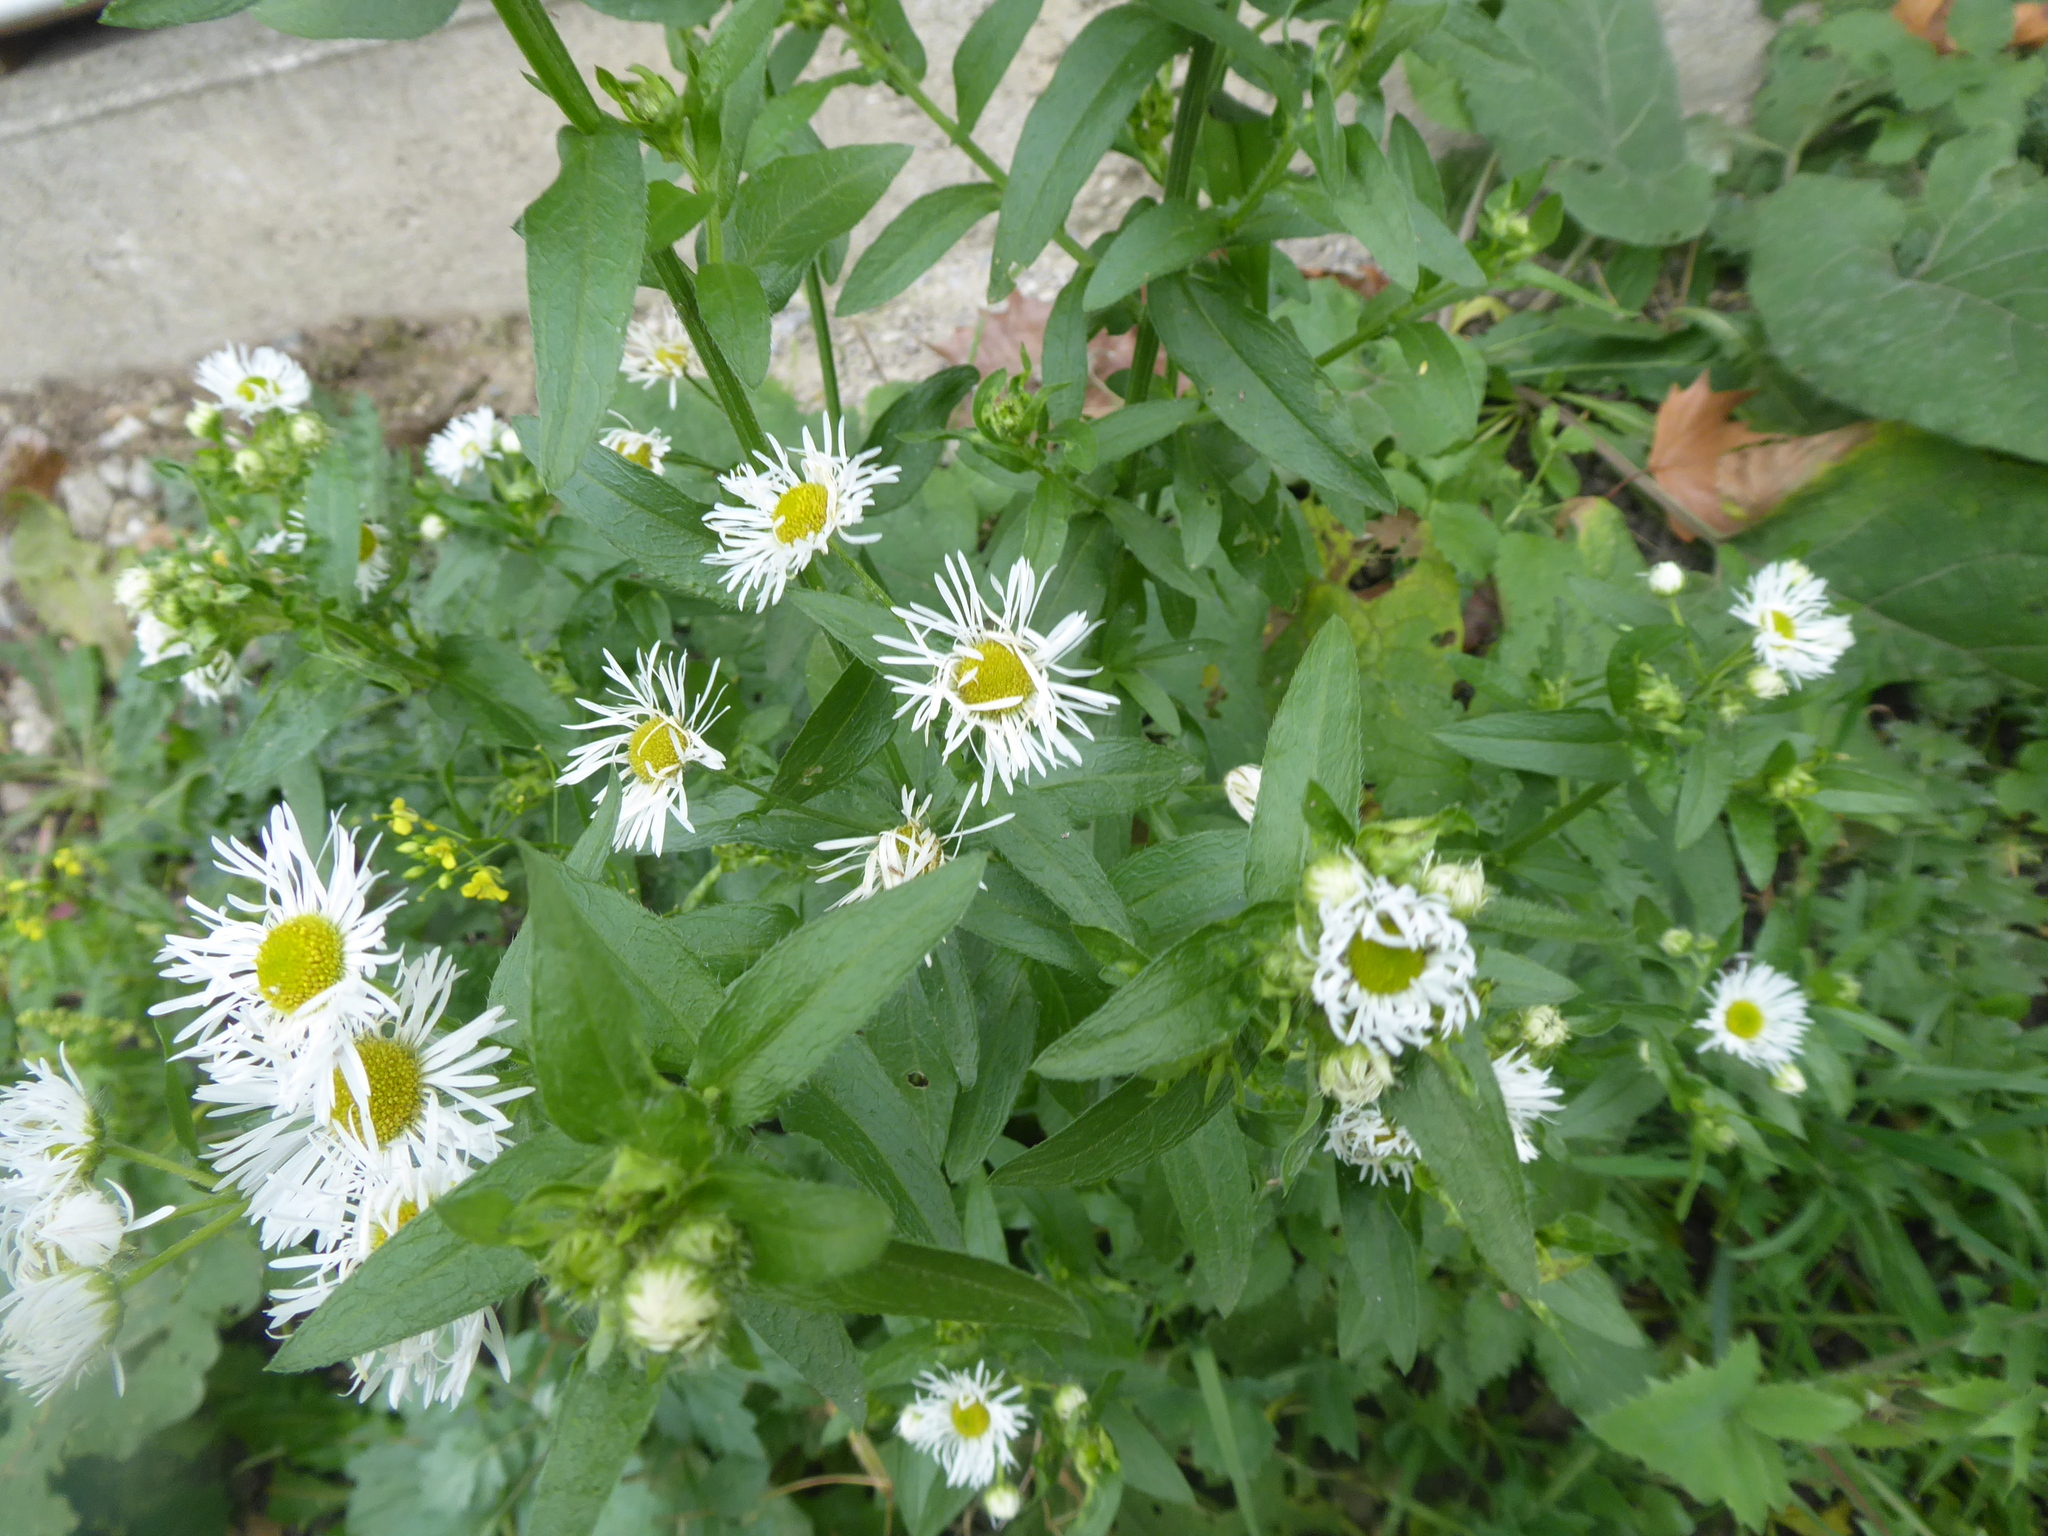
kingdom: Plantae
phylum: Tracheophyta
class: Magnoliopsida
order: Asterales
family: Asteraceae
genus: Erigeron
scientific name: Erigeron annuus
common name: Tall fleabane
